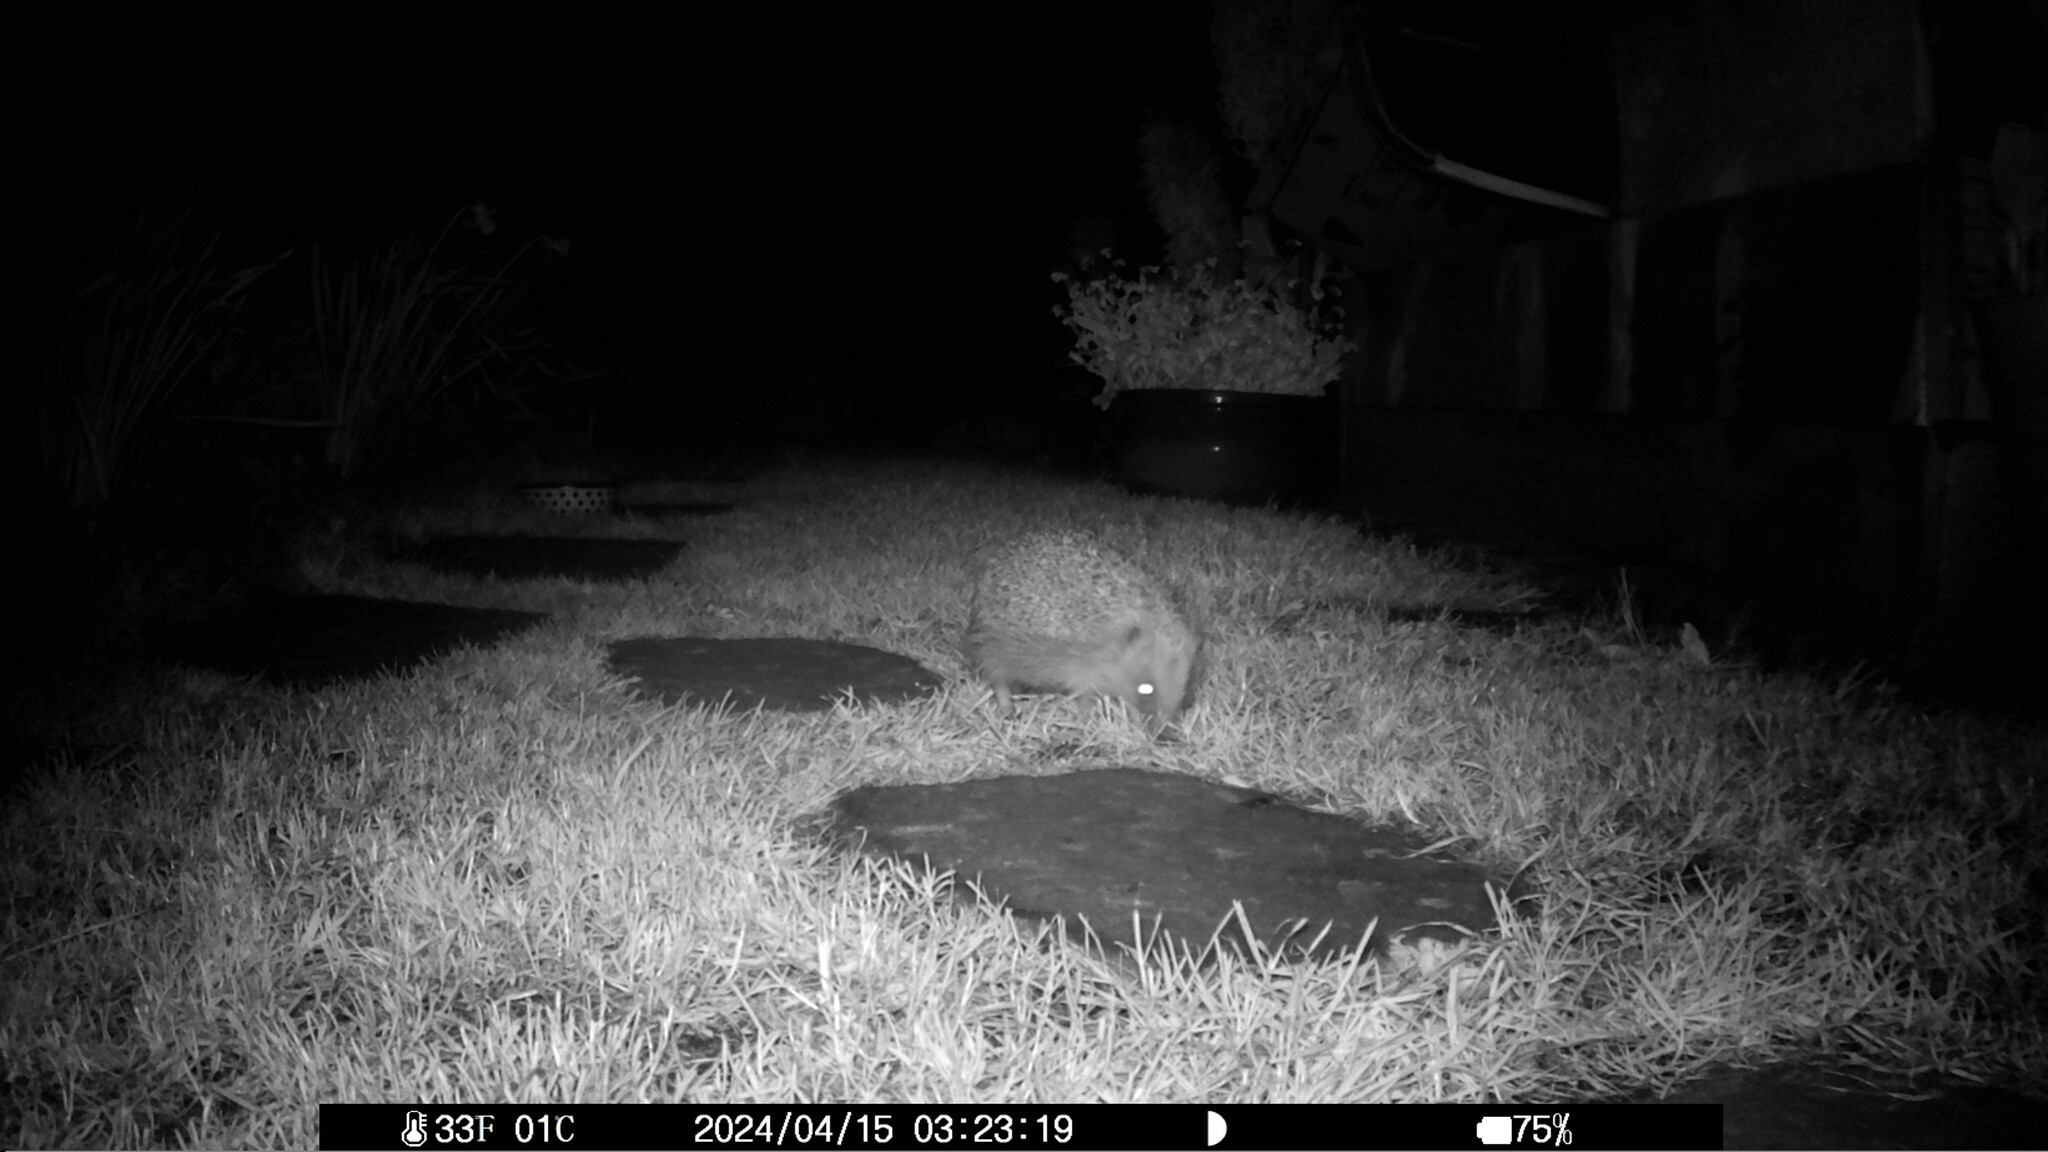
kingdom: Animalia
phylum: Chordata
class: Mammalia
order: Erinaceomorpha
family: Erinaceidae
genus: Erinaceus
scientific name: Erinaceus europaeus
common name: West european hedgehog
